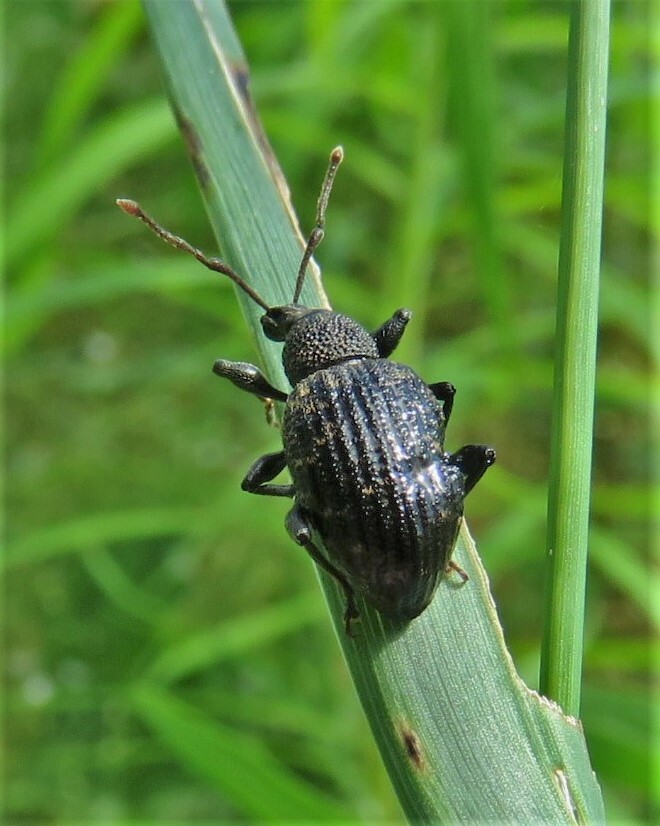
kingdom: Animalia
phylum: Arthropoda
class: Insecta
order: Coleoptera
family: Curculionidae
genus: Otiorhynchus
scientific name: Otiorhynchus sulcatus
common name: Black vine weevil
